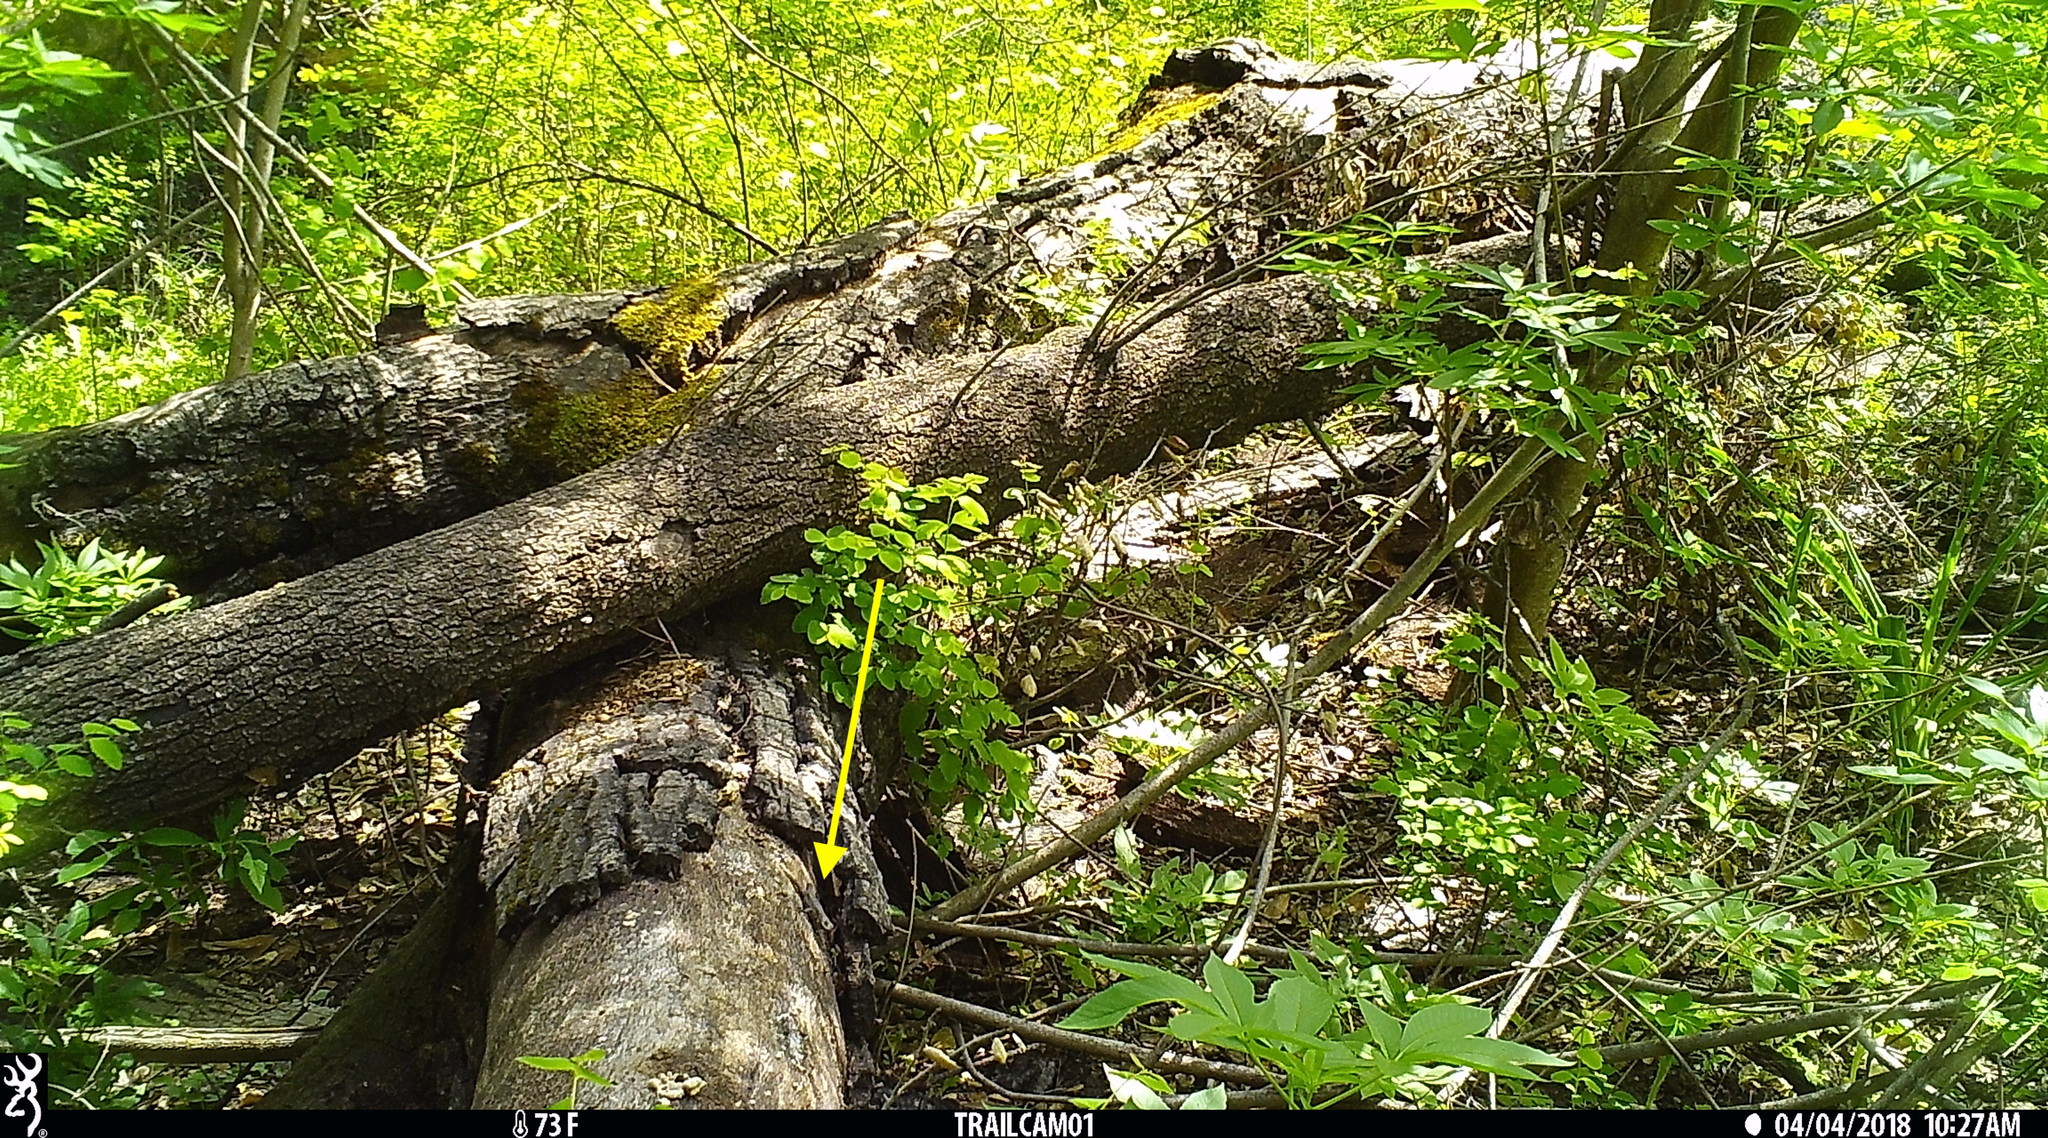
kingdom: Animalia
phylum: Chordata
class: Squamata
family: Phrynosomatidae
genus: Sceloporus
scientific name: Sceloporus occidentalis
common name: Western fence lizard
